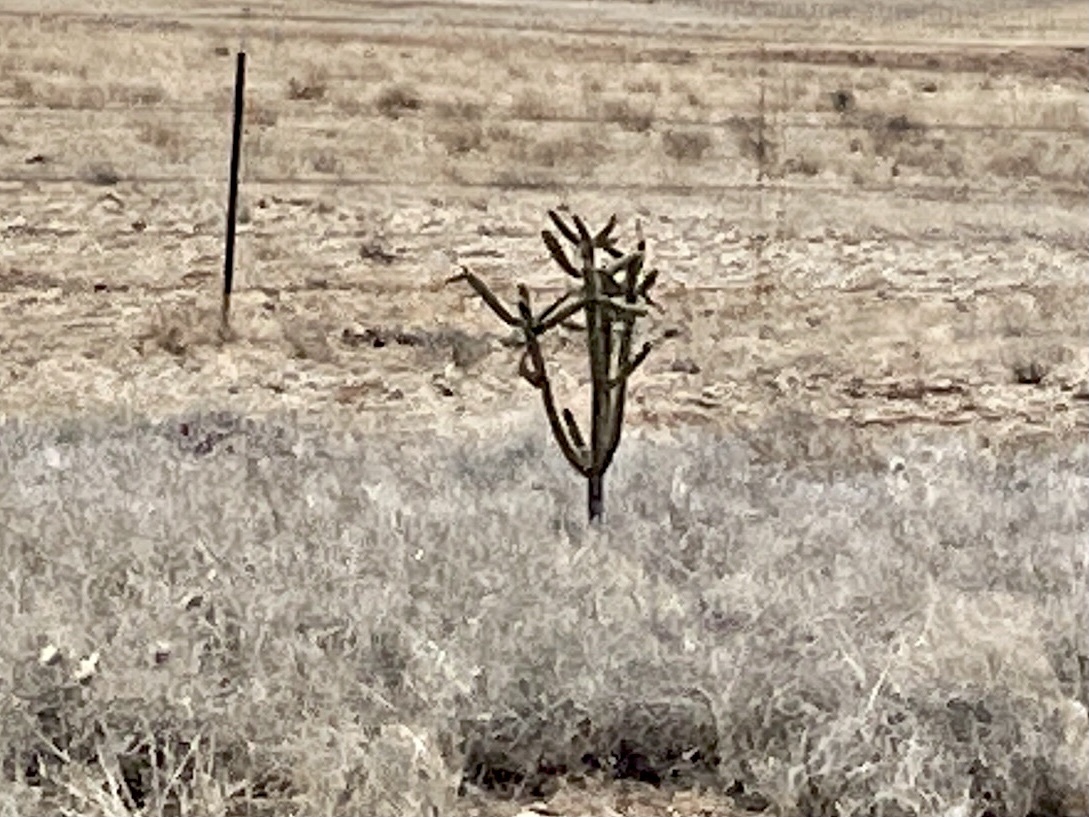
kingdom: Plantae
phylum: Tracheophyta
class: Magnoliopsida
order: Caryophyllales
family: Cactaceae
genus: Cylindropuntia
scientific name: Cylindropuntia imbricata
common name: Candelabrum cactus
